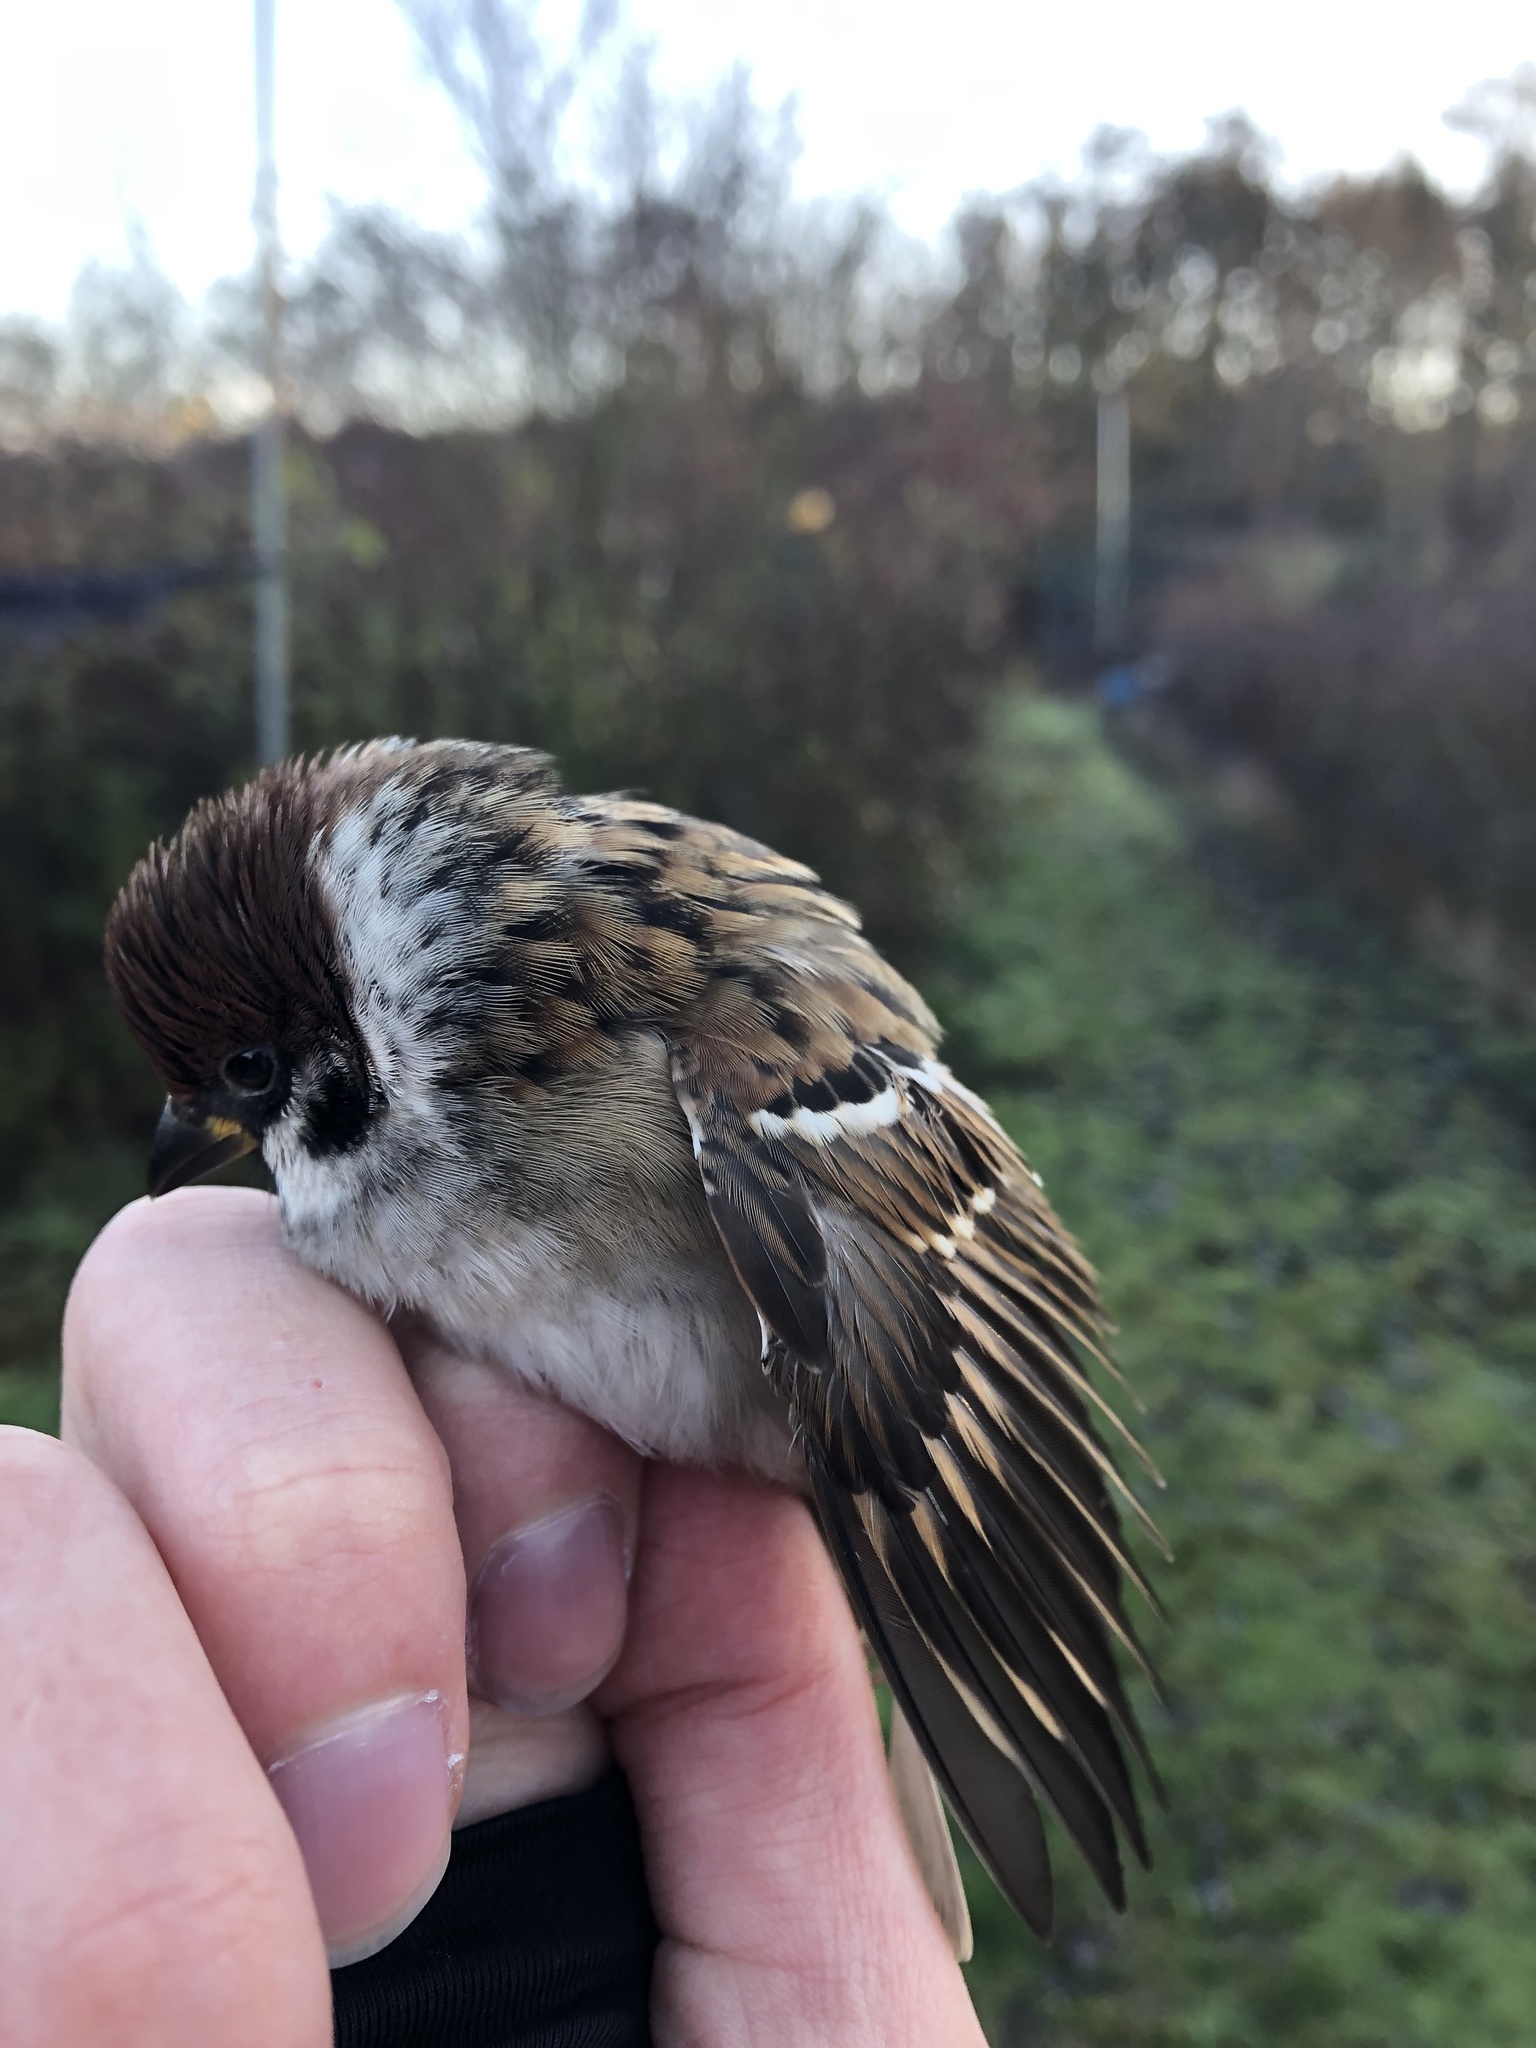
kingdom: Animalia
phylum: Chordata
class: Aves
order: Passeriformes
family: Passeridae
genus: Passer
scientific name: Passer montanus
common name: Eurasian tree sparrow
